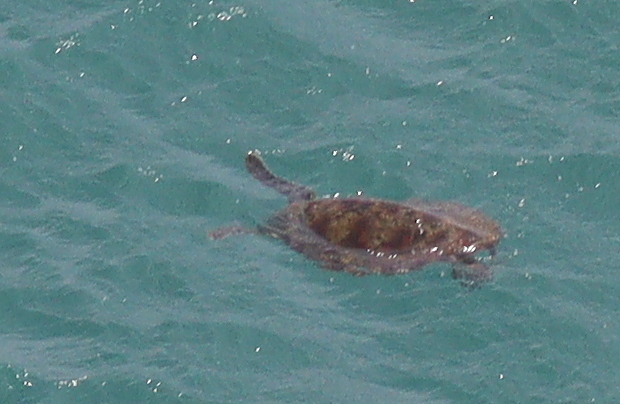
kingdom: Animalia
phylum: Chordata
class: Testudines
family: Cheloniidae
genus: Chelonia
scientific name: Chelonia mydas
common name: Green turtle
